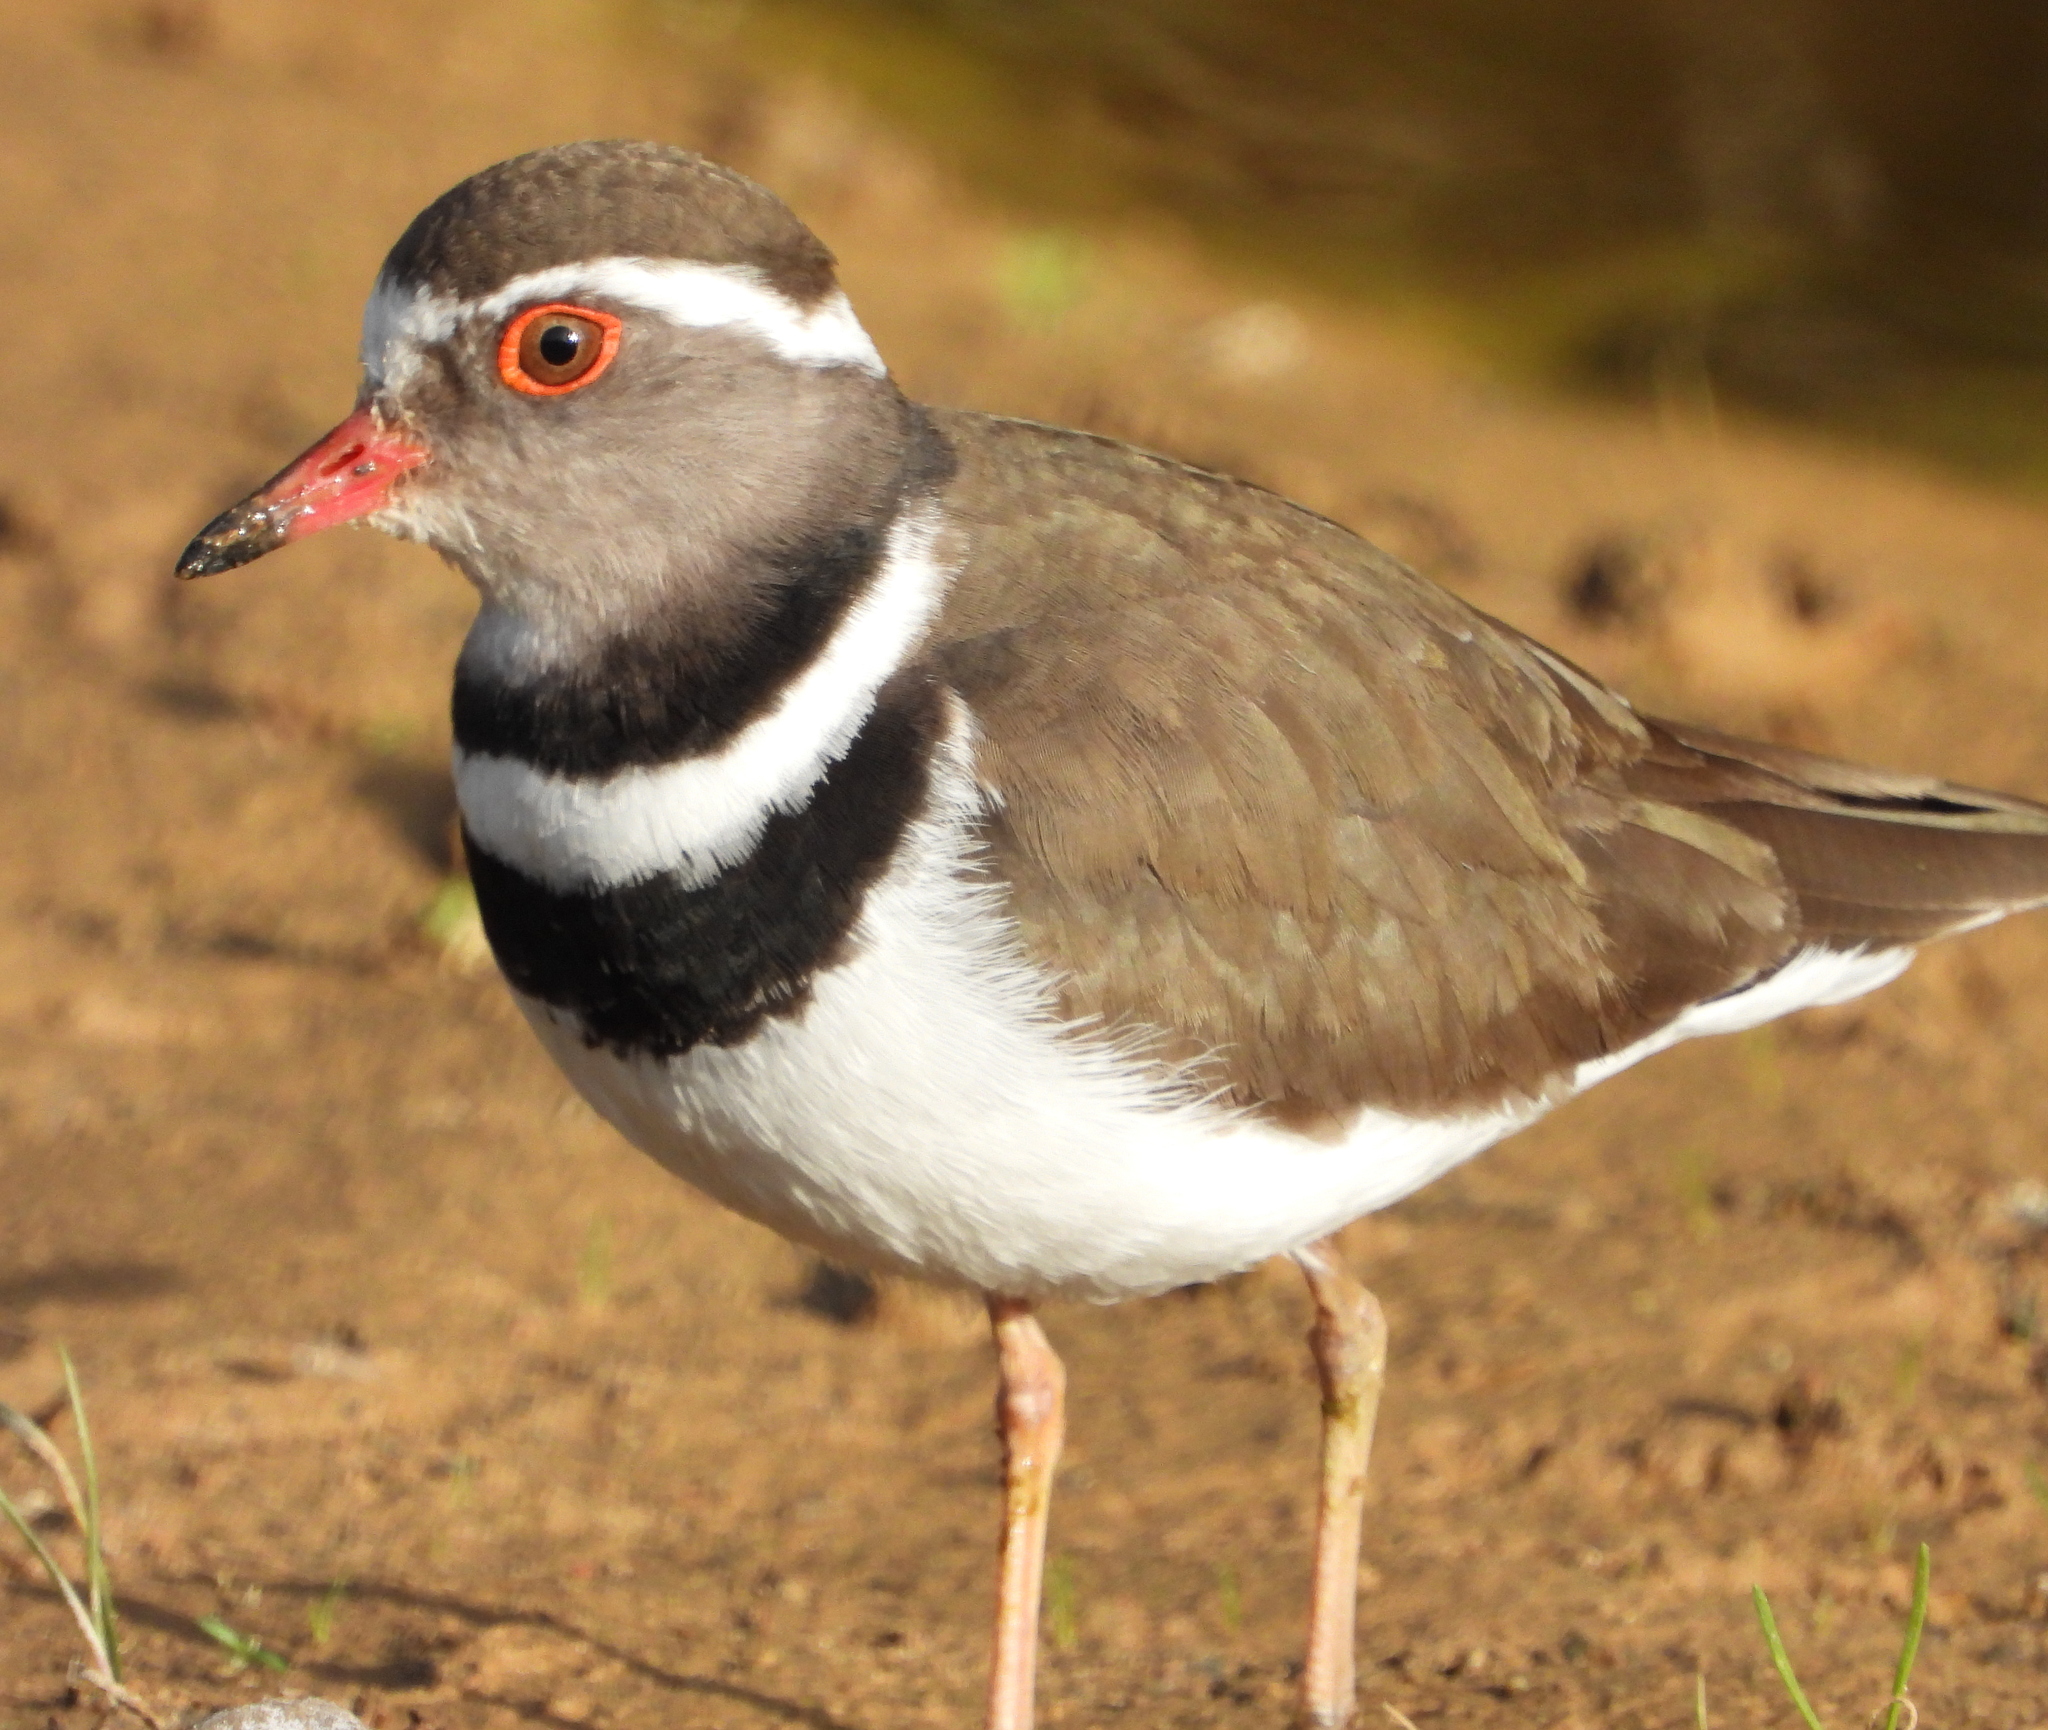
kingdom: Animalia
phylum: Chordata
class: Aves
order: Charadriiformes
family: Charadriidae
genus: Charadrius
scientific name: Charadrius tricollaris
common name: Three-banded plover
